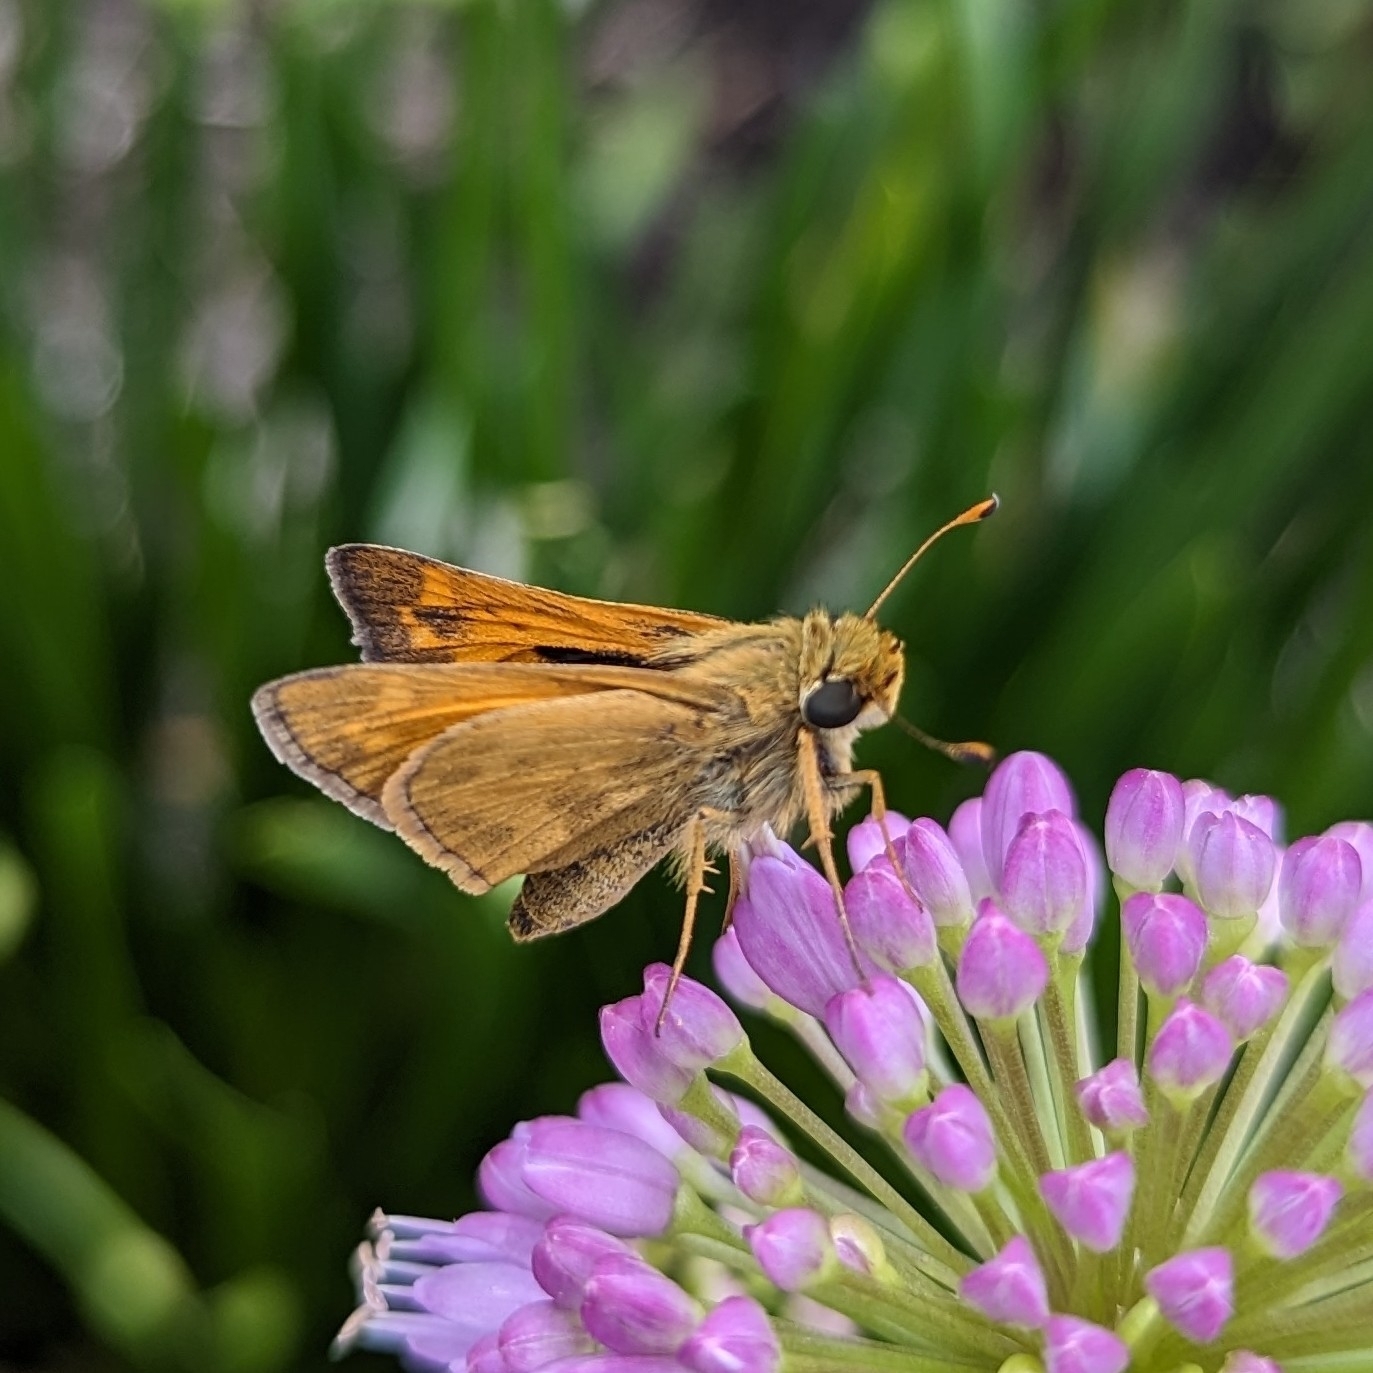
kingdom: Animalia
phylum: Arthropoda
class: Insecta
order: Lepidoptera
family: Hesperiidae
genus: Atalopedes
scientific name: Atalopedes
